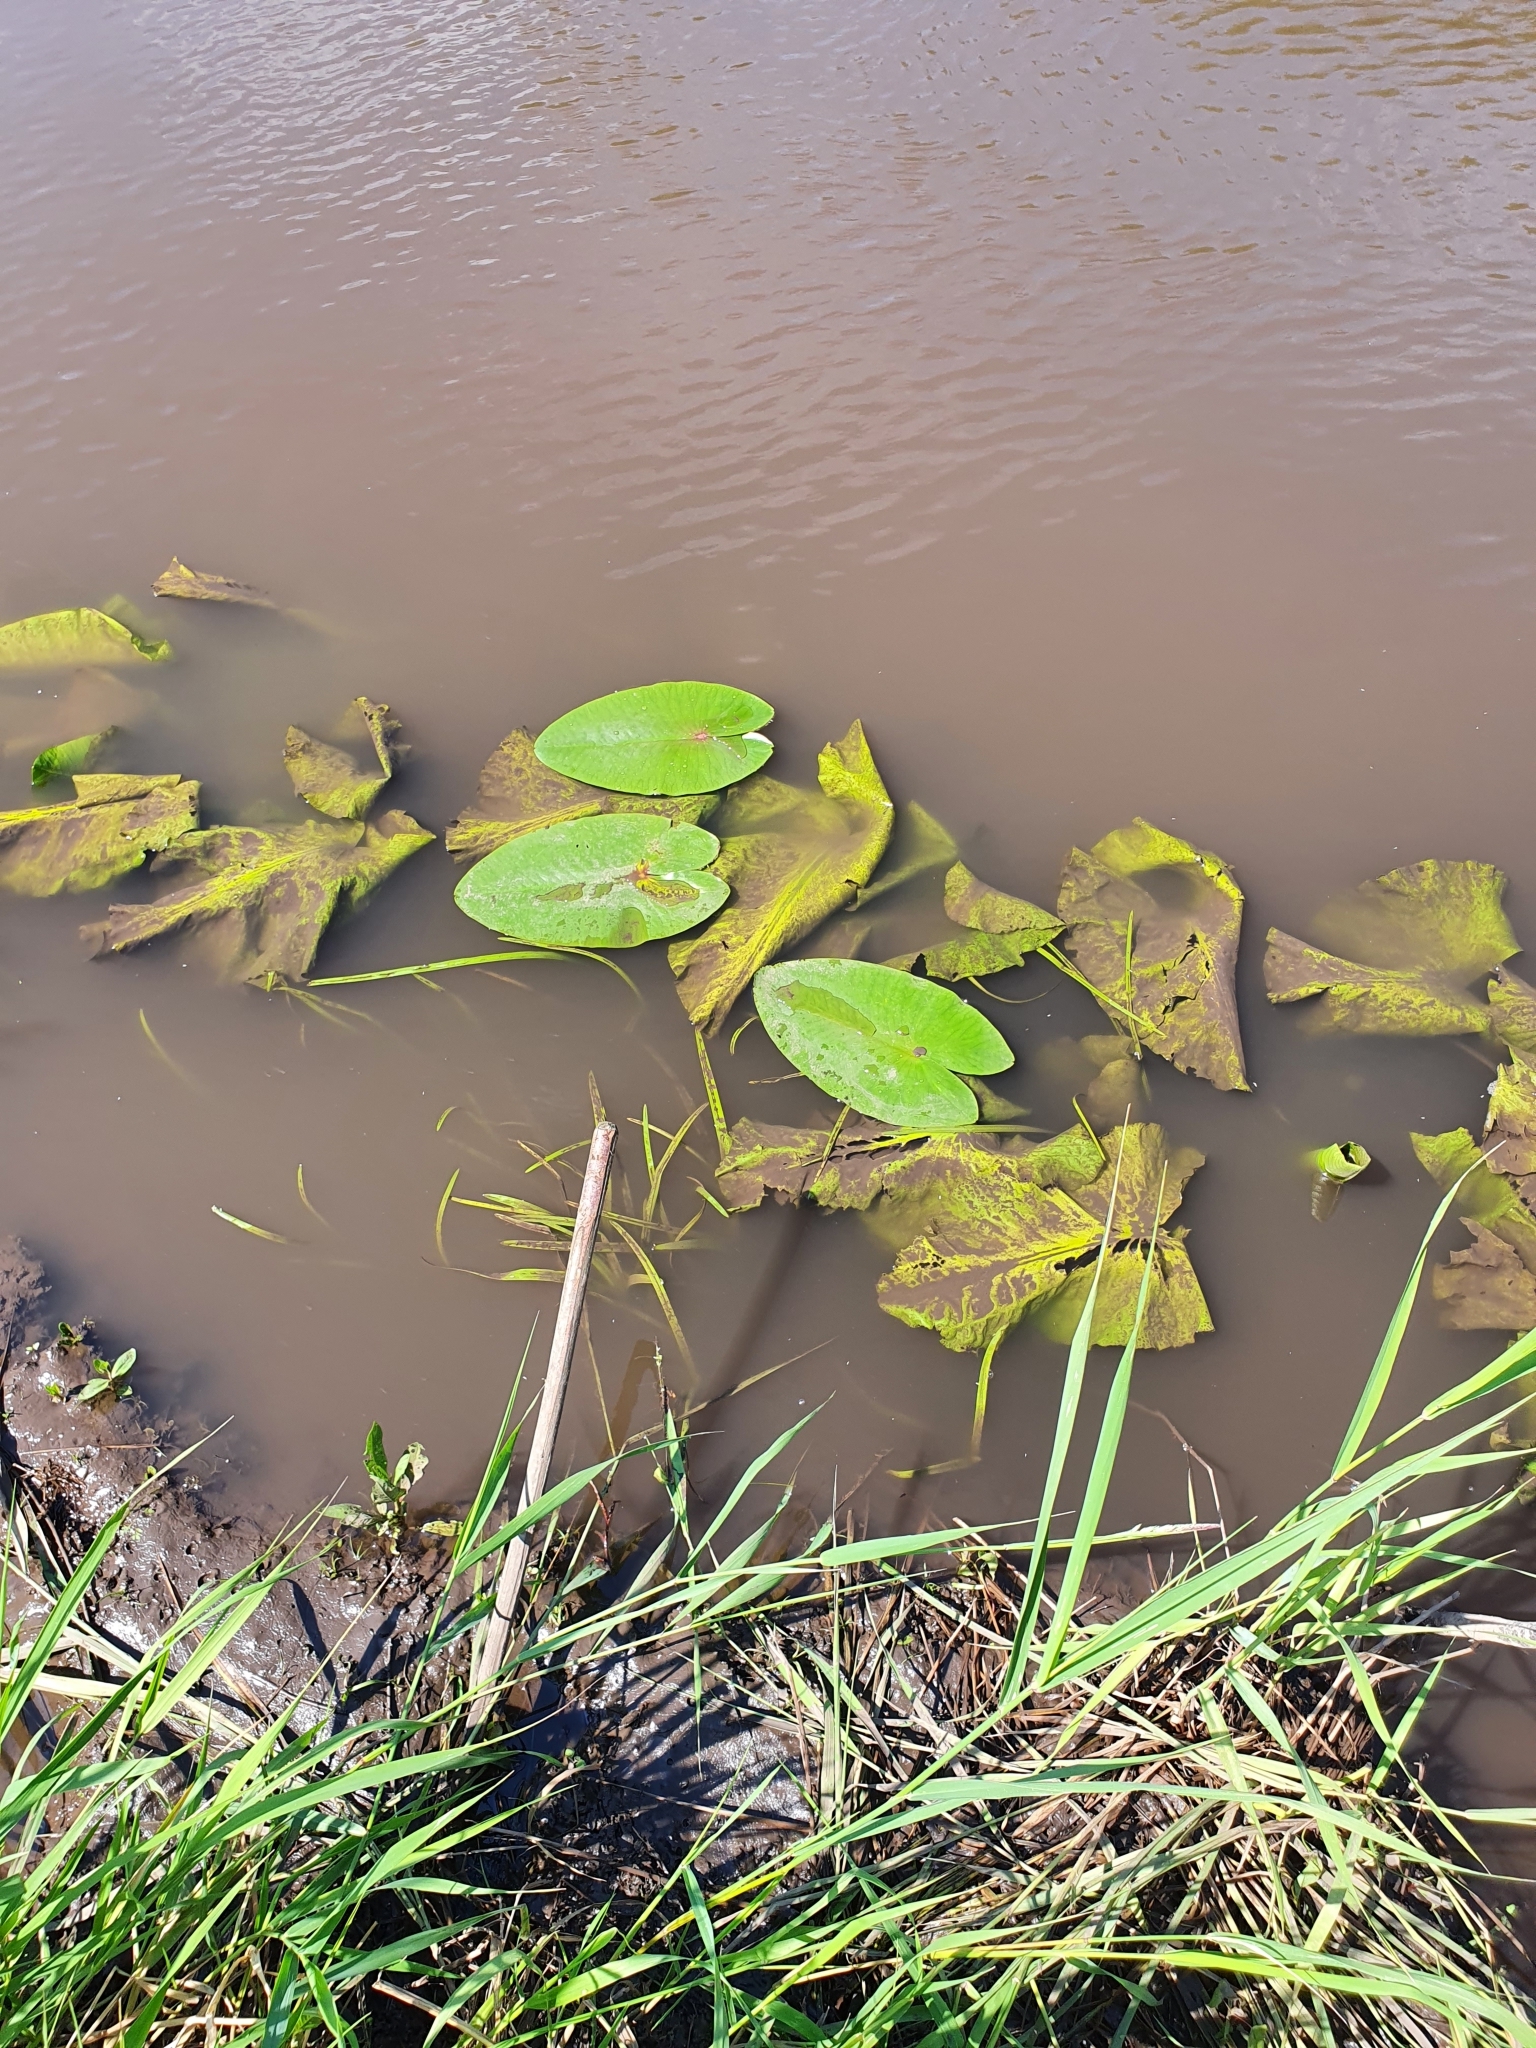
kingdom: Plantae
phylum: Tracheophyta
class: Magnoliopsida
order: Nymphaeales
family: Nymphaeaceae
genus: Nuphar
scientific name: Nuphar lutea
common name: Yellow water-lily
